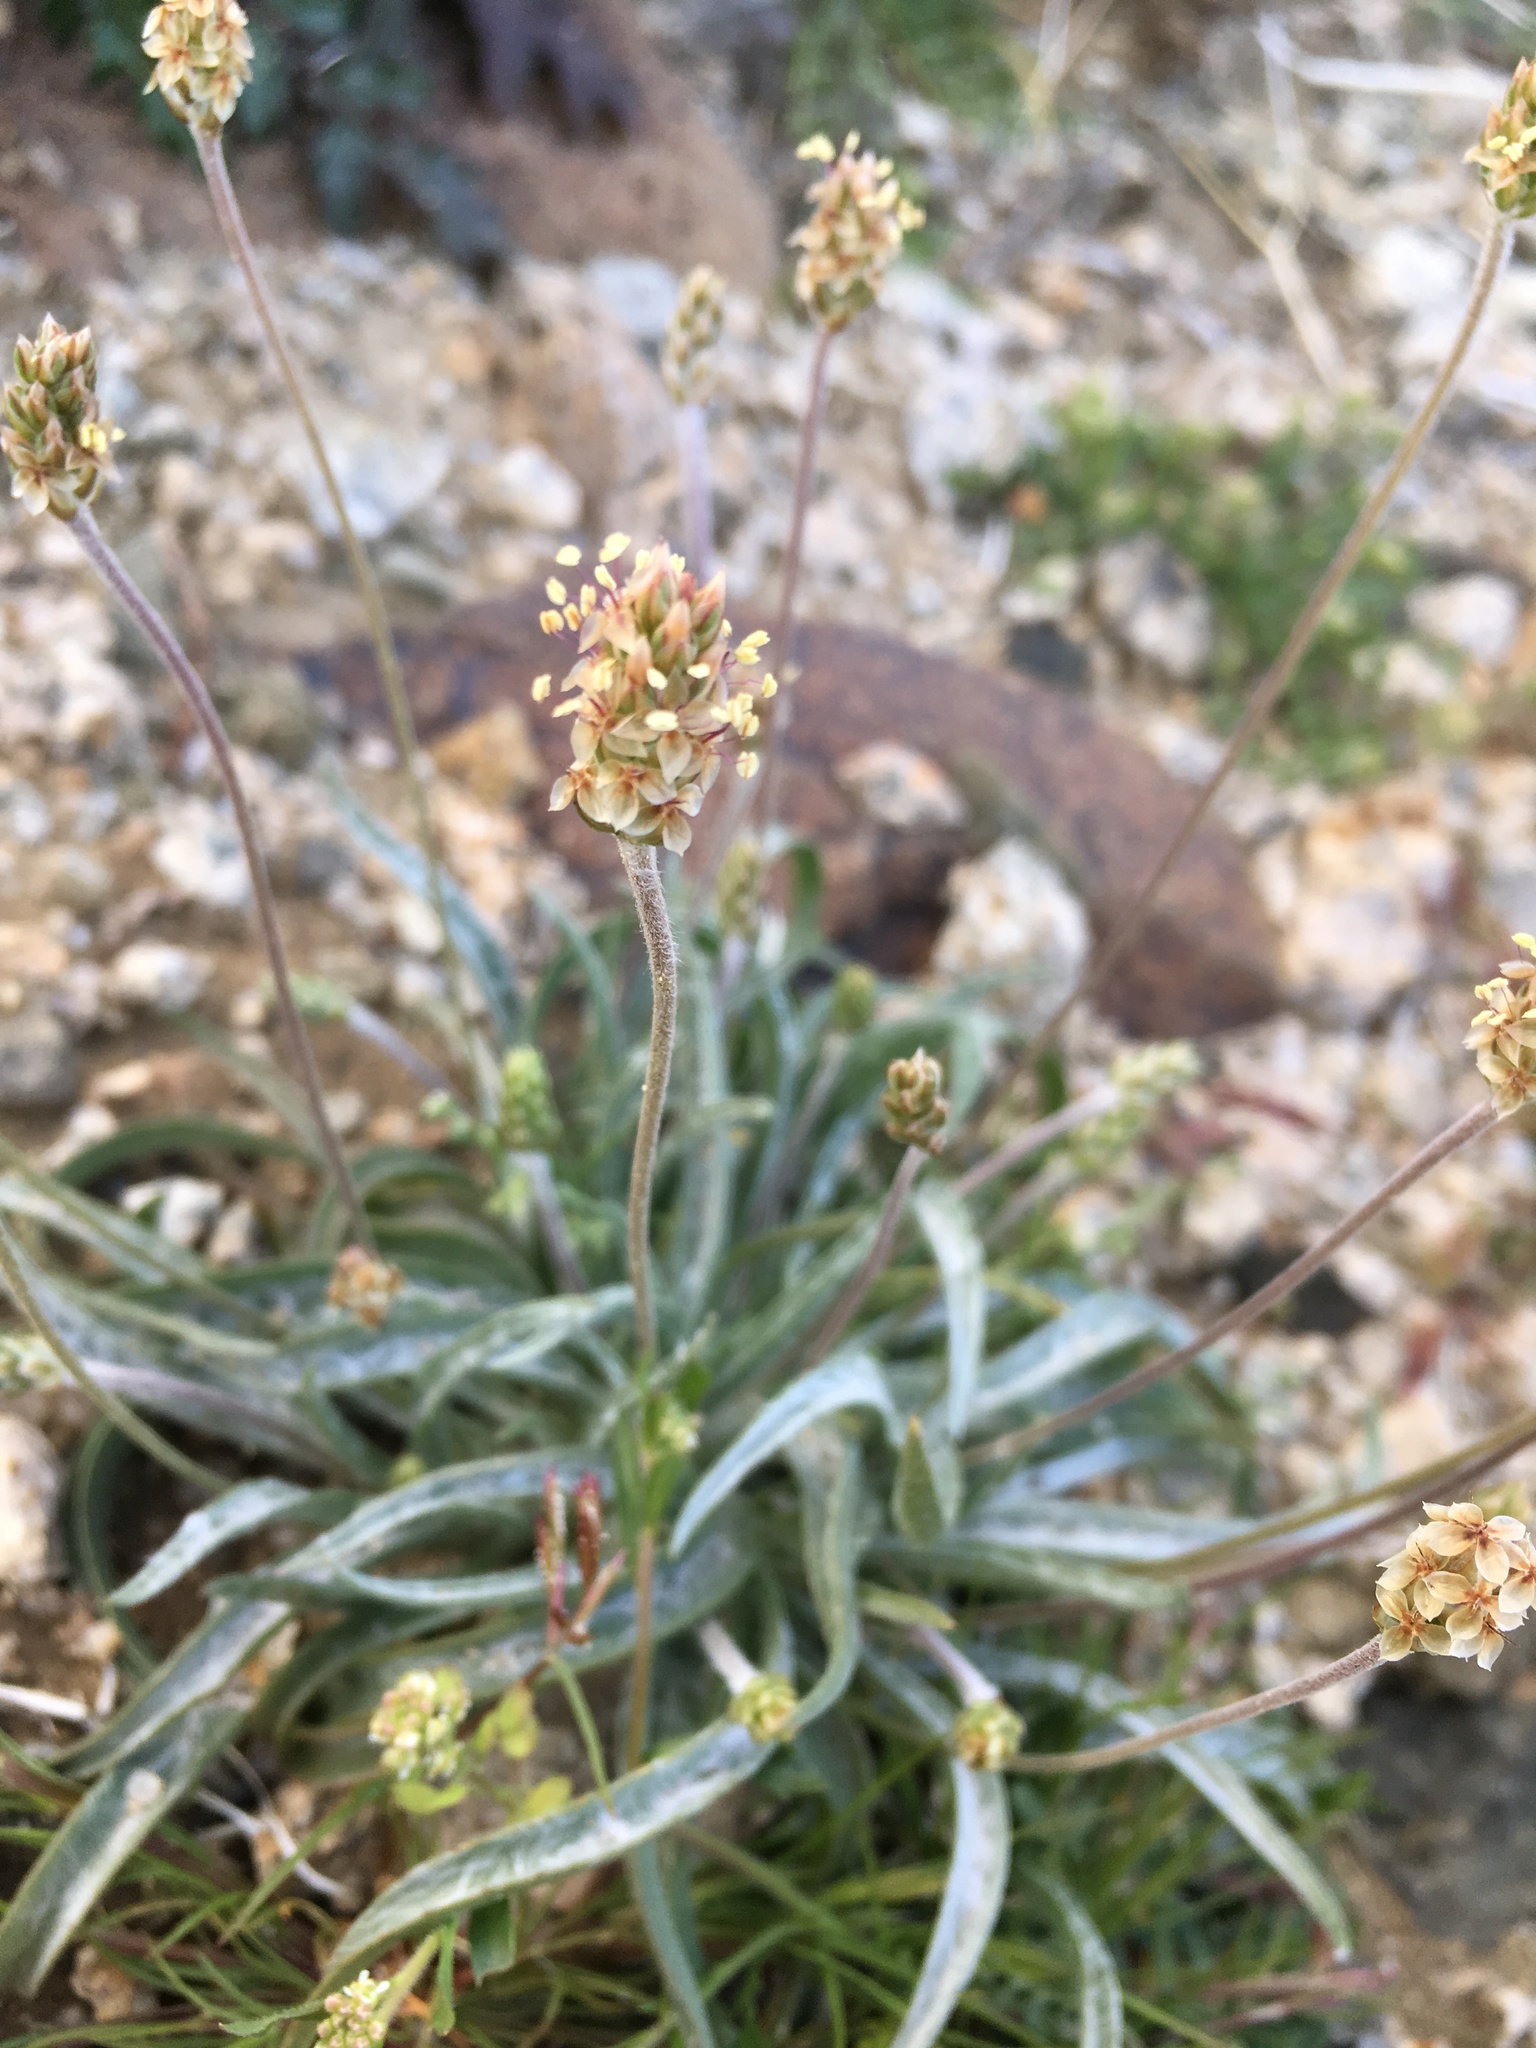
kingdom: Plantae
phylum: Tracheophyta
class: Magnoliopsida
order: Lamiales
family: Plantaginaceae
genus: Plantago
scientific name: Plantago ovata
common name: Blond plantain
